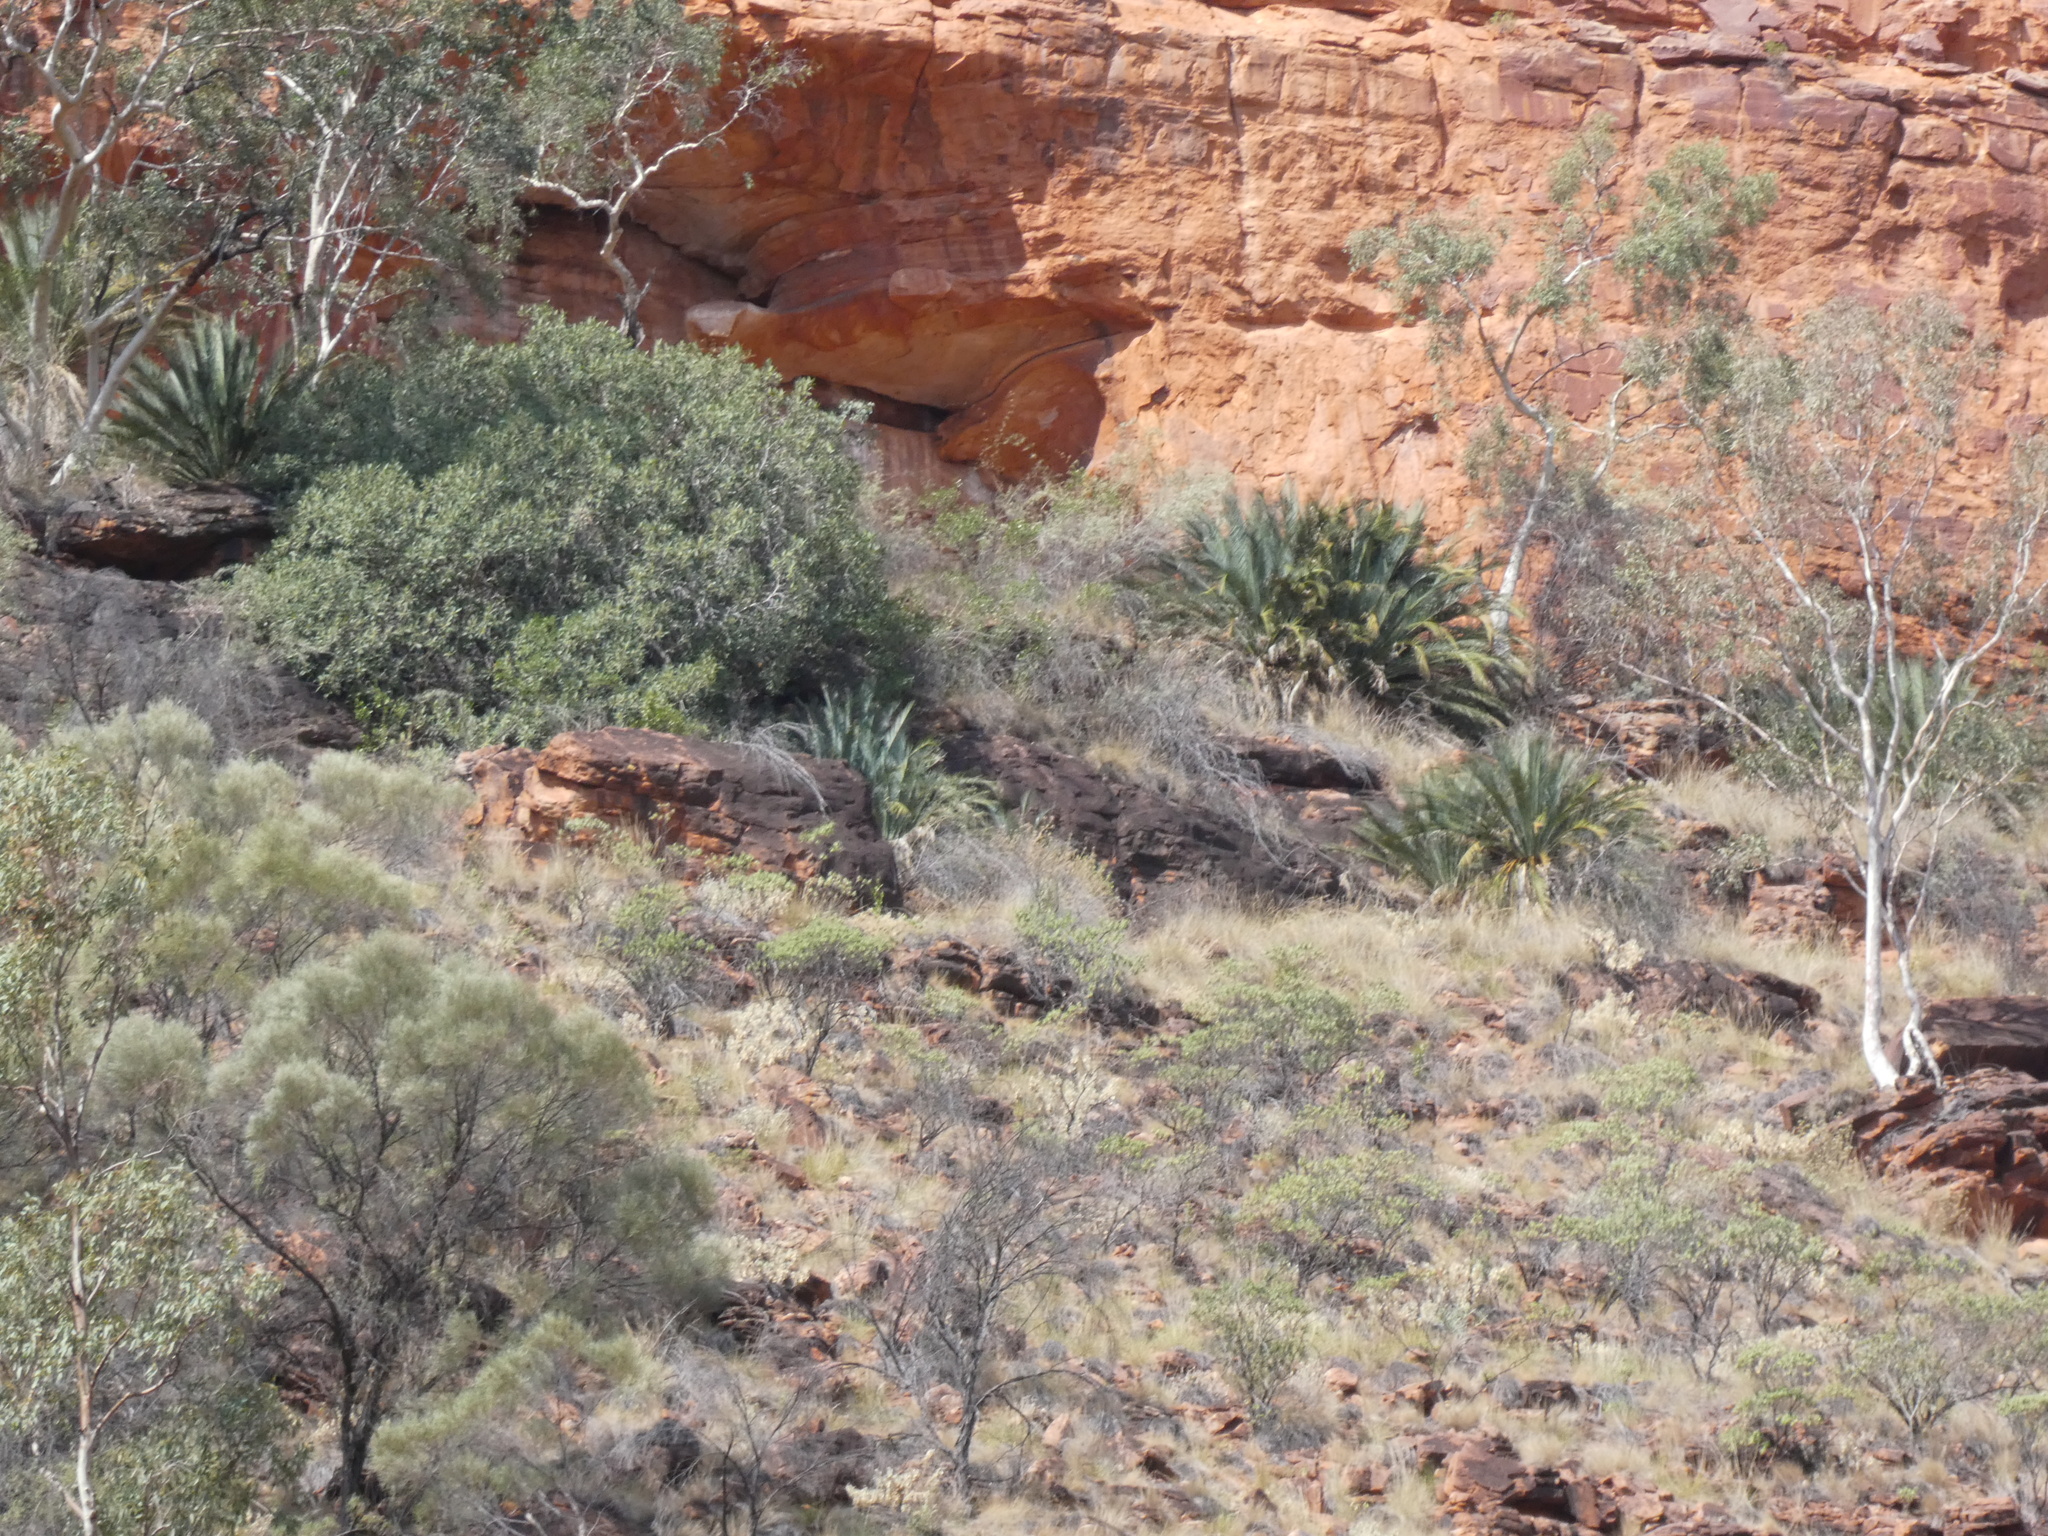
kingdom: Plantae
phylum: Tracheophyta
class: Cycadopsida
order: Cycadales
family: Zamiaceae
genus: Macrozamia
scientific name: Macrozamia macdonnellii
